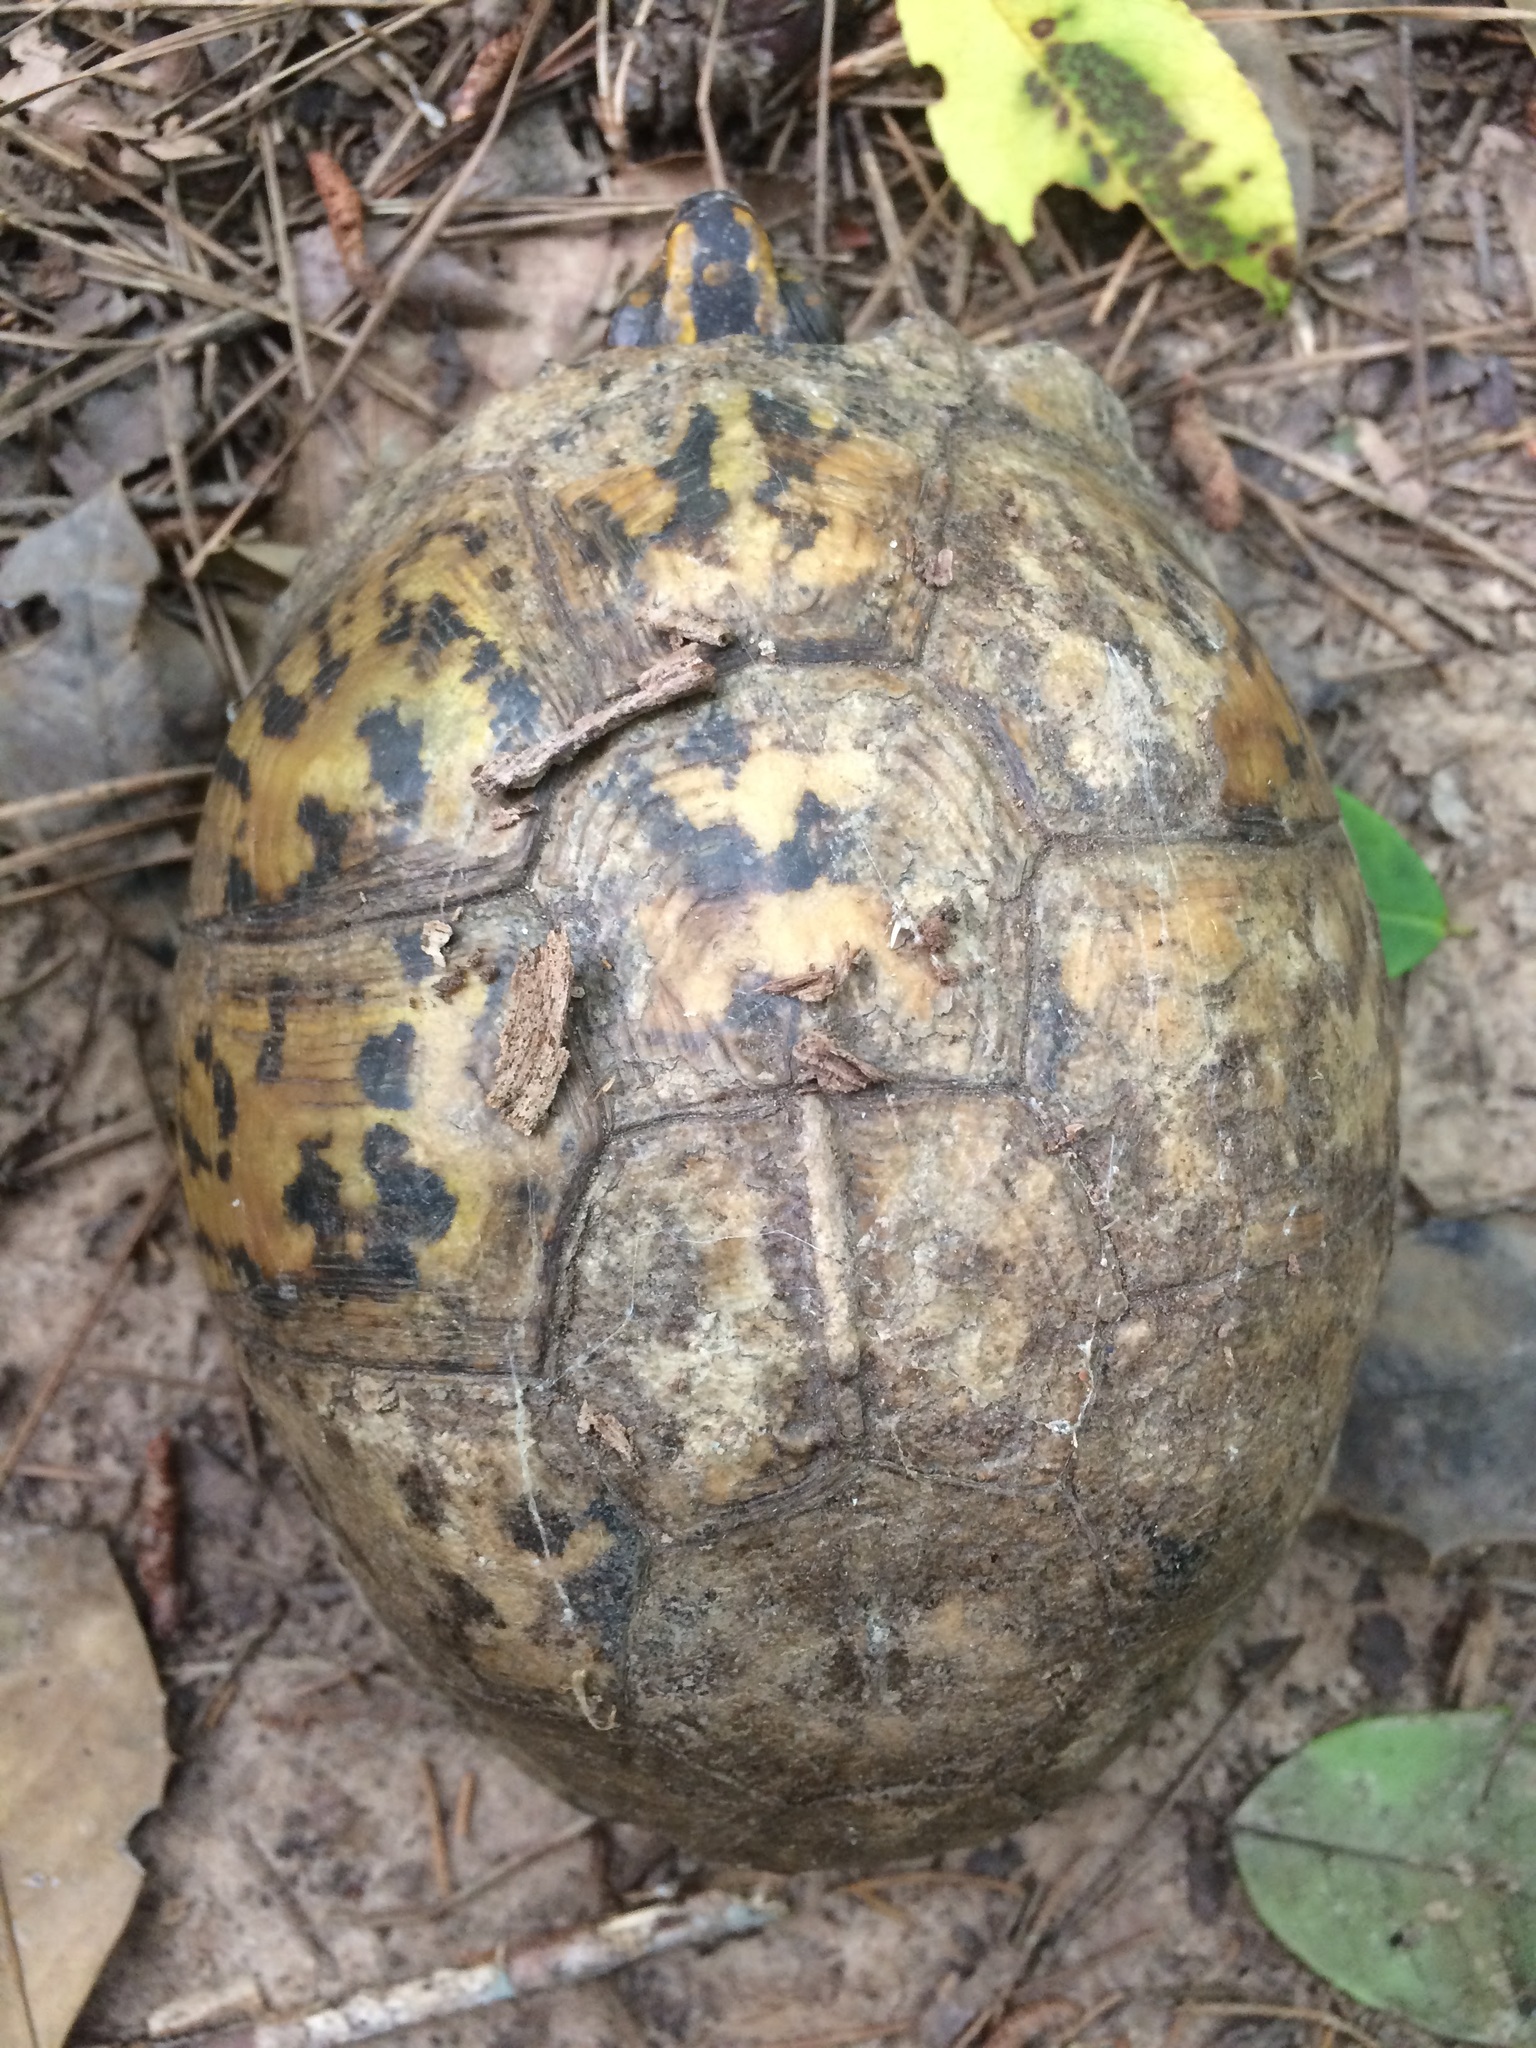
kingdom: Animalia
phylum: Chordata
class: Testudines
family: Emydidae
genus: Terrapene
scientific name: Terrapene carolina
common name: Common box turtle
